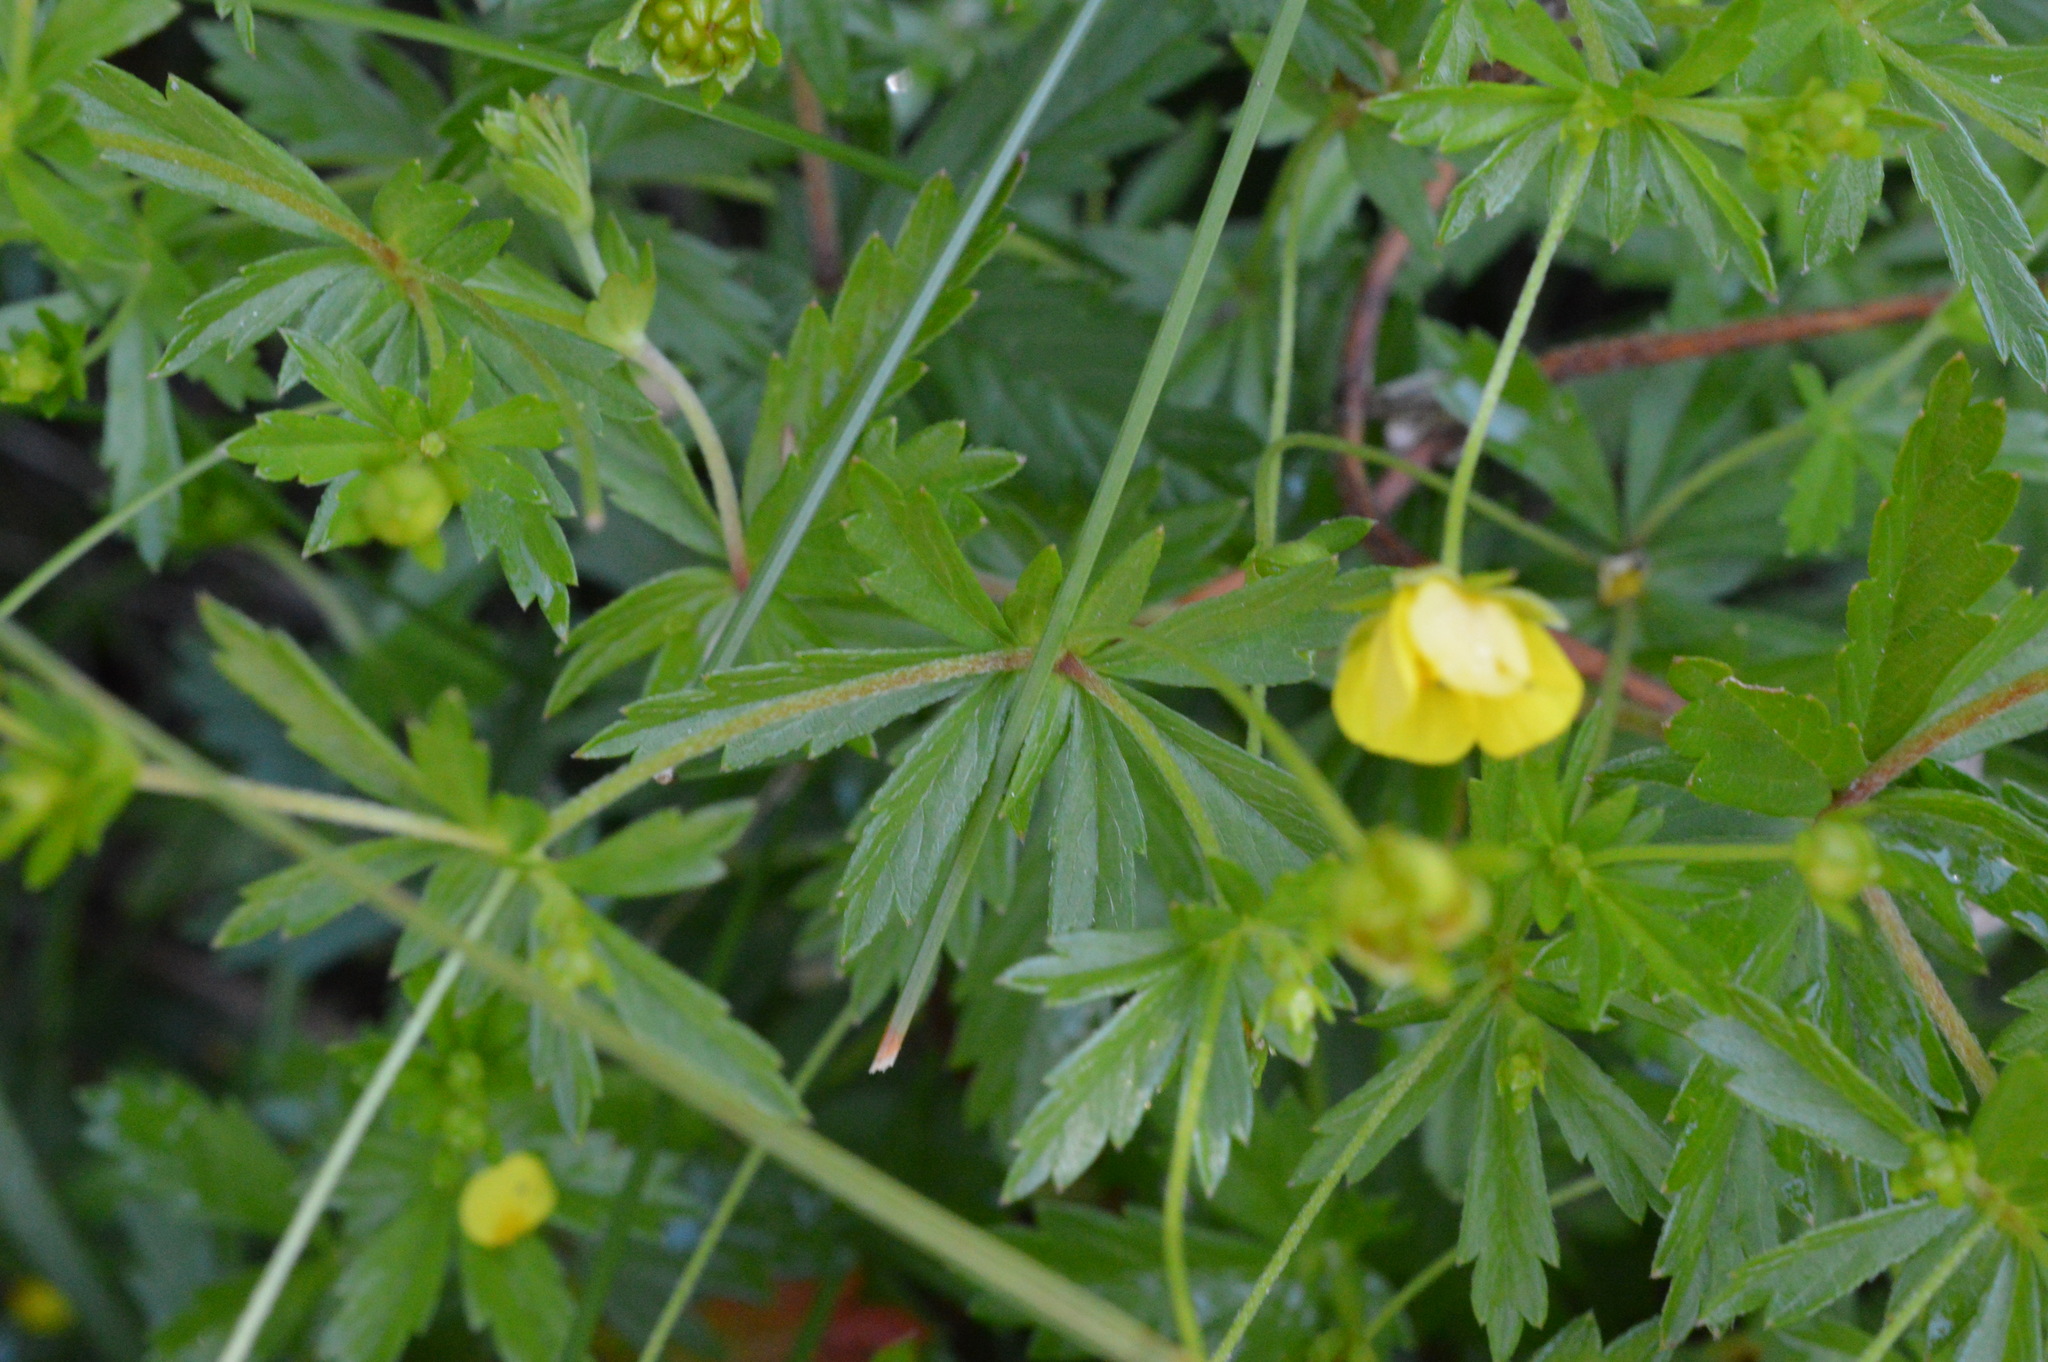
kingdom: Plantae
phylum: Tracheophyta
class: Magnoliopsida
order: Rosales
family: Rosaceae
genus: Potentilla
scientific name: Potentilla erecta
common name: Tormentil
